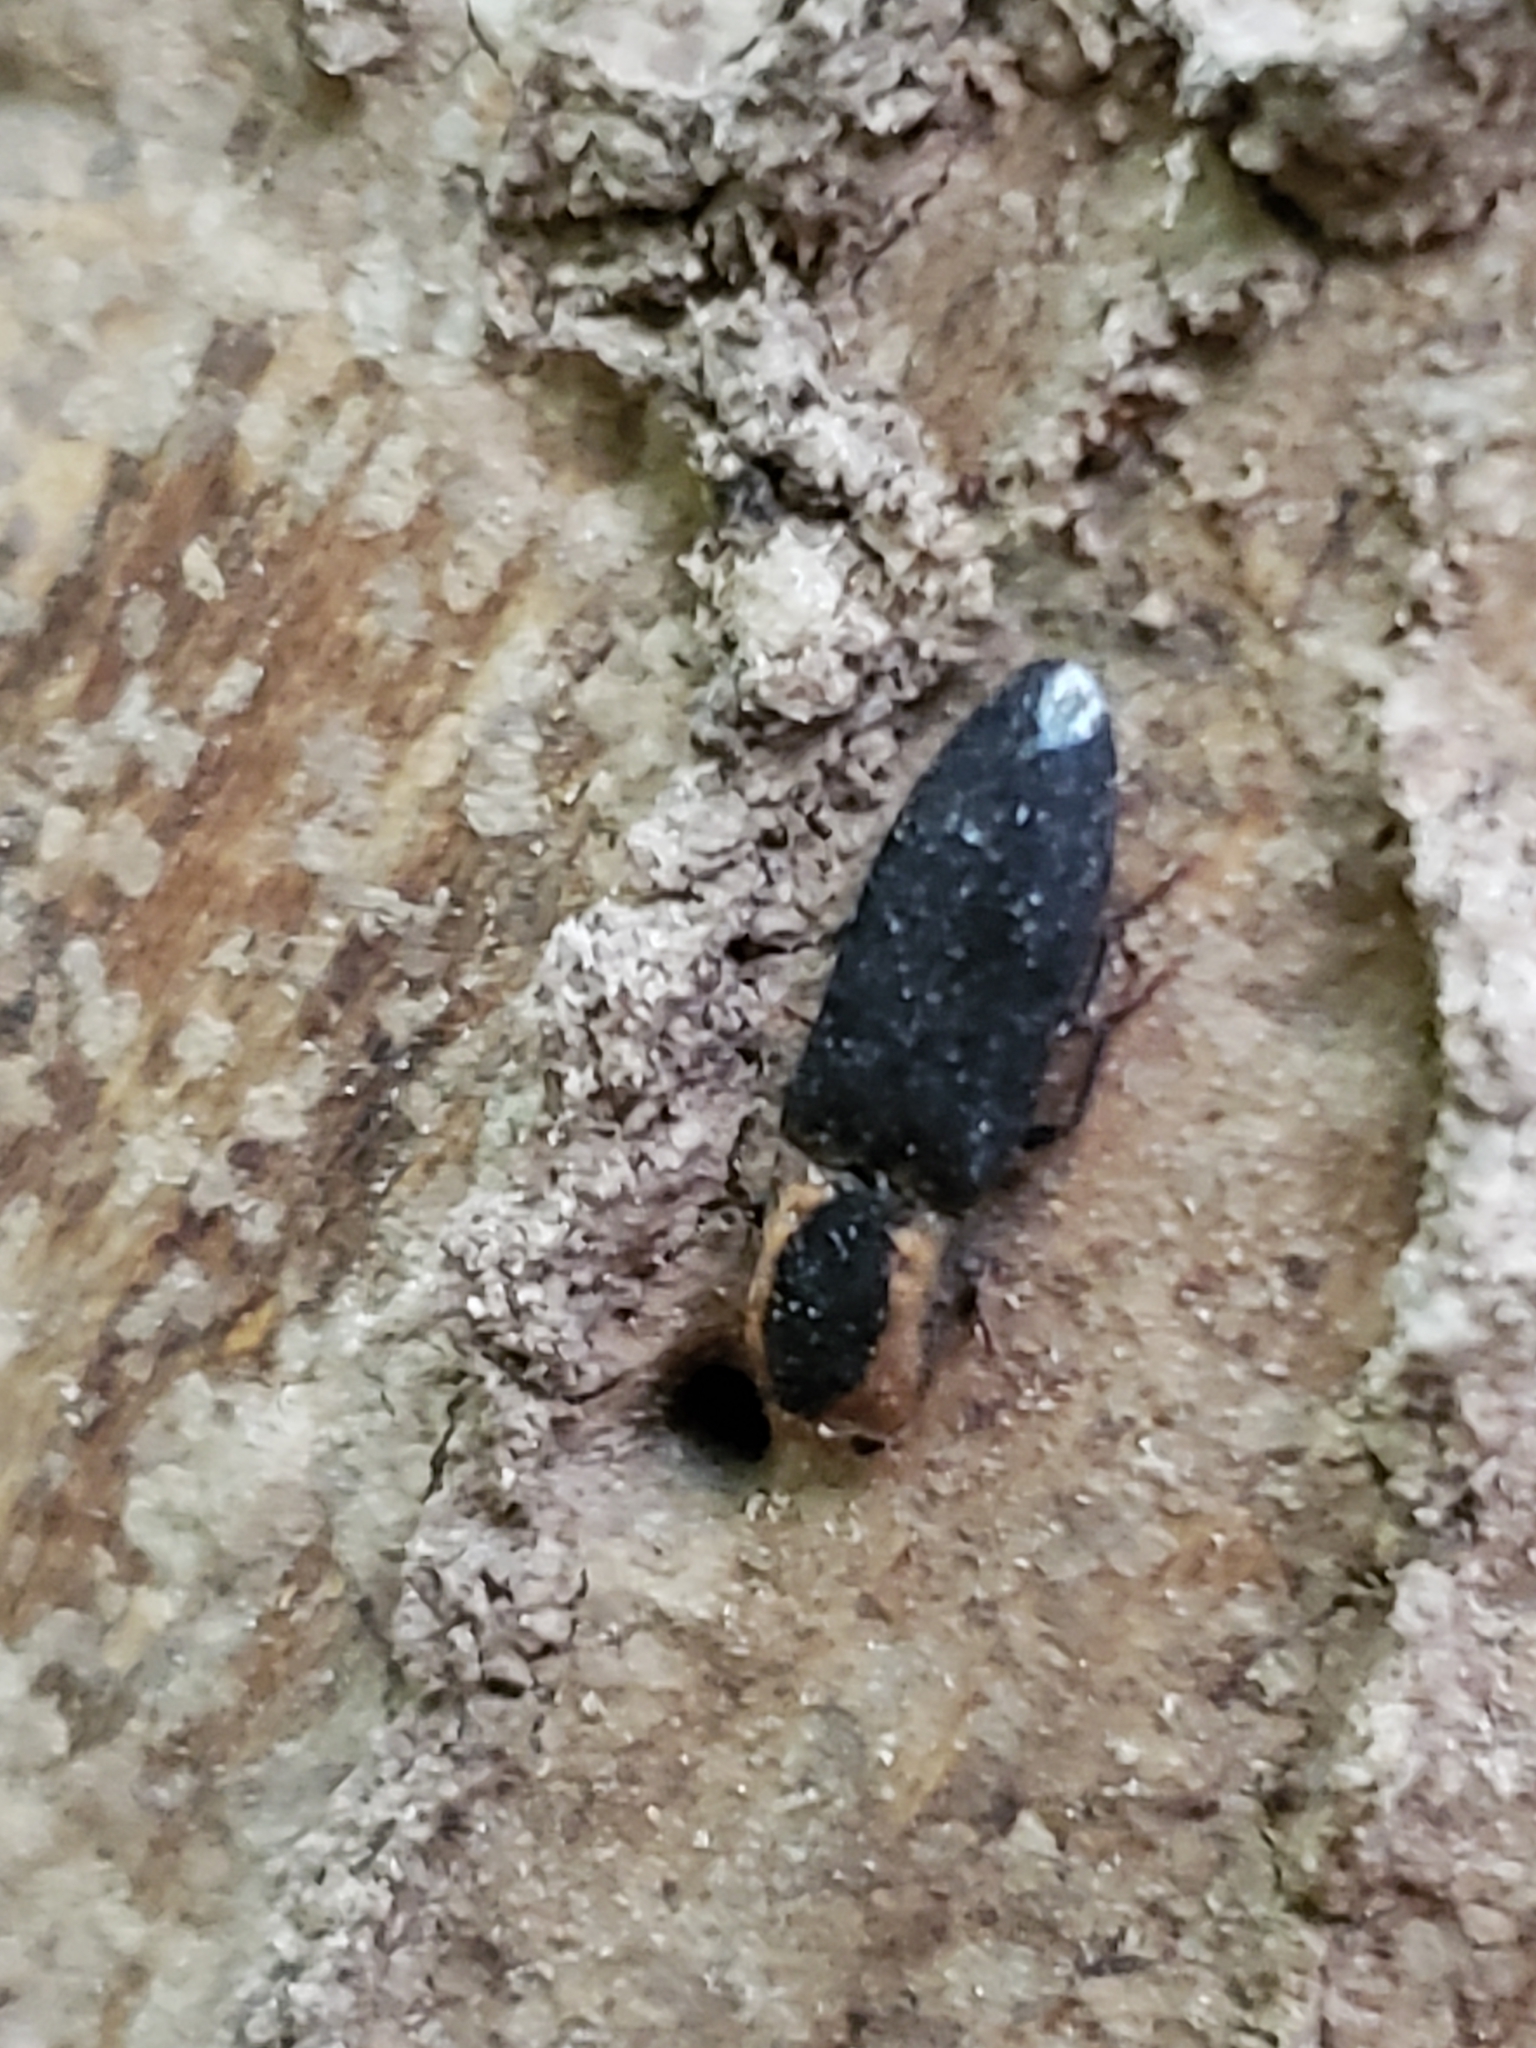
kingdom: Animalia
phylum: Arthropoda
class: Insecta
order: Coleoptera
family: Elateridae
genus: Lacon
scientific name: Lacon discoideus
